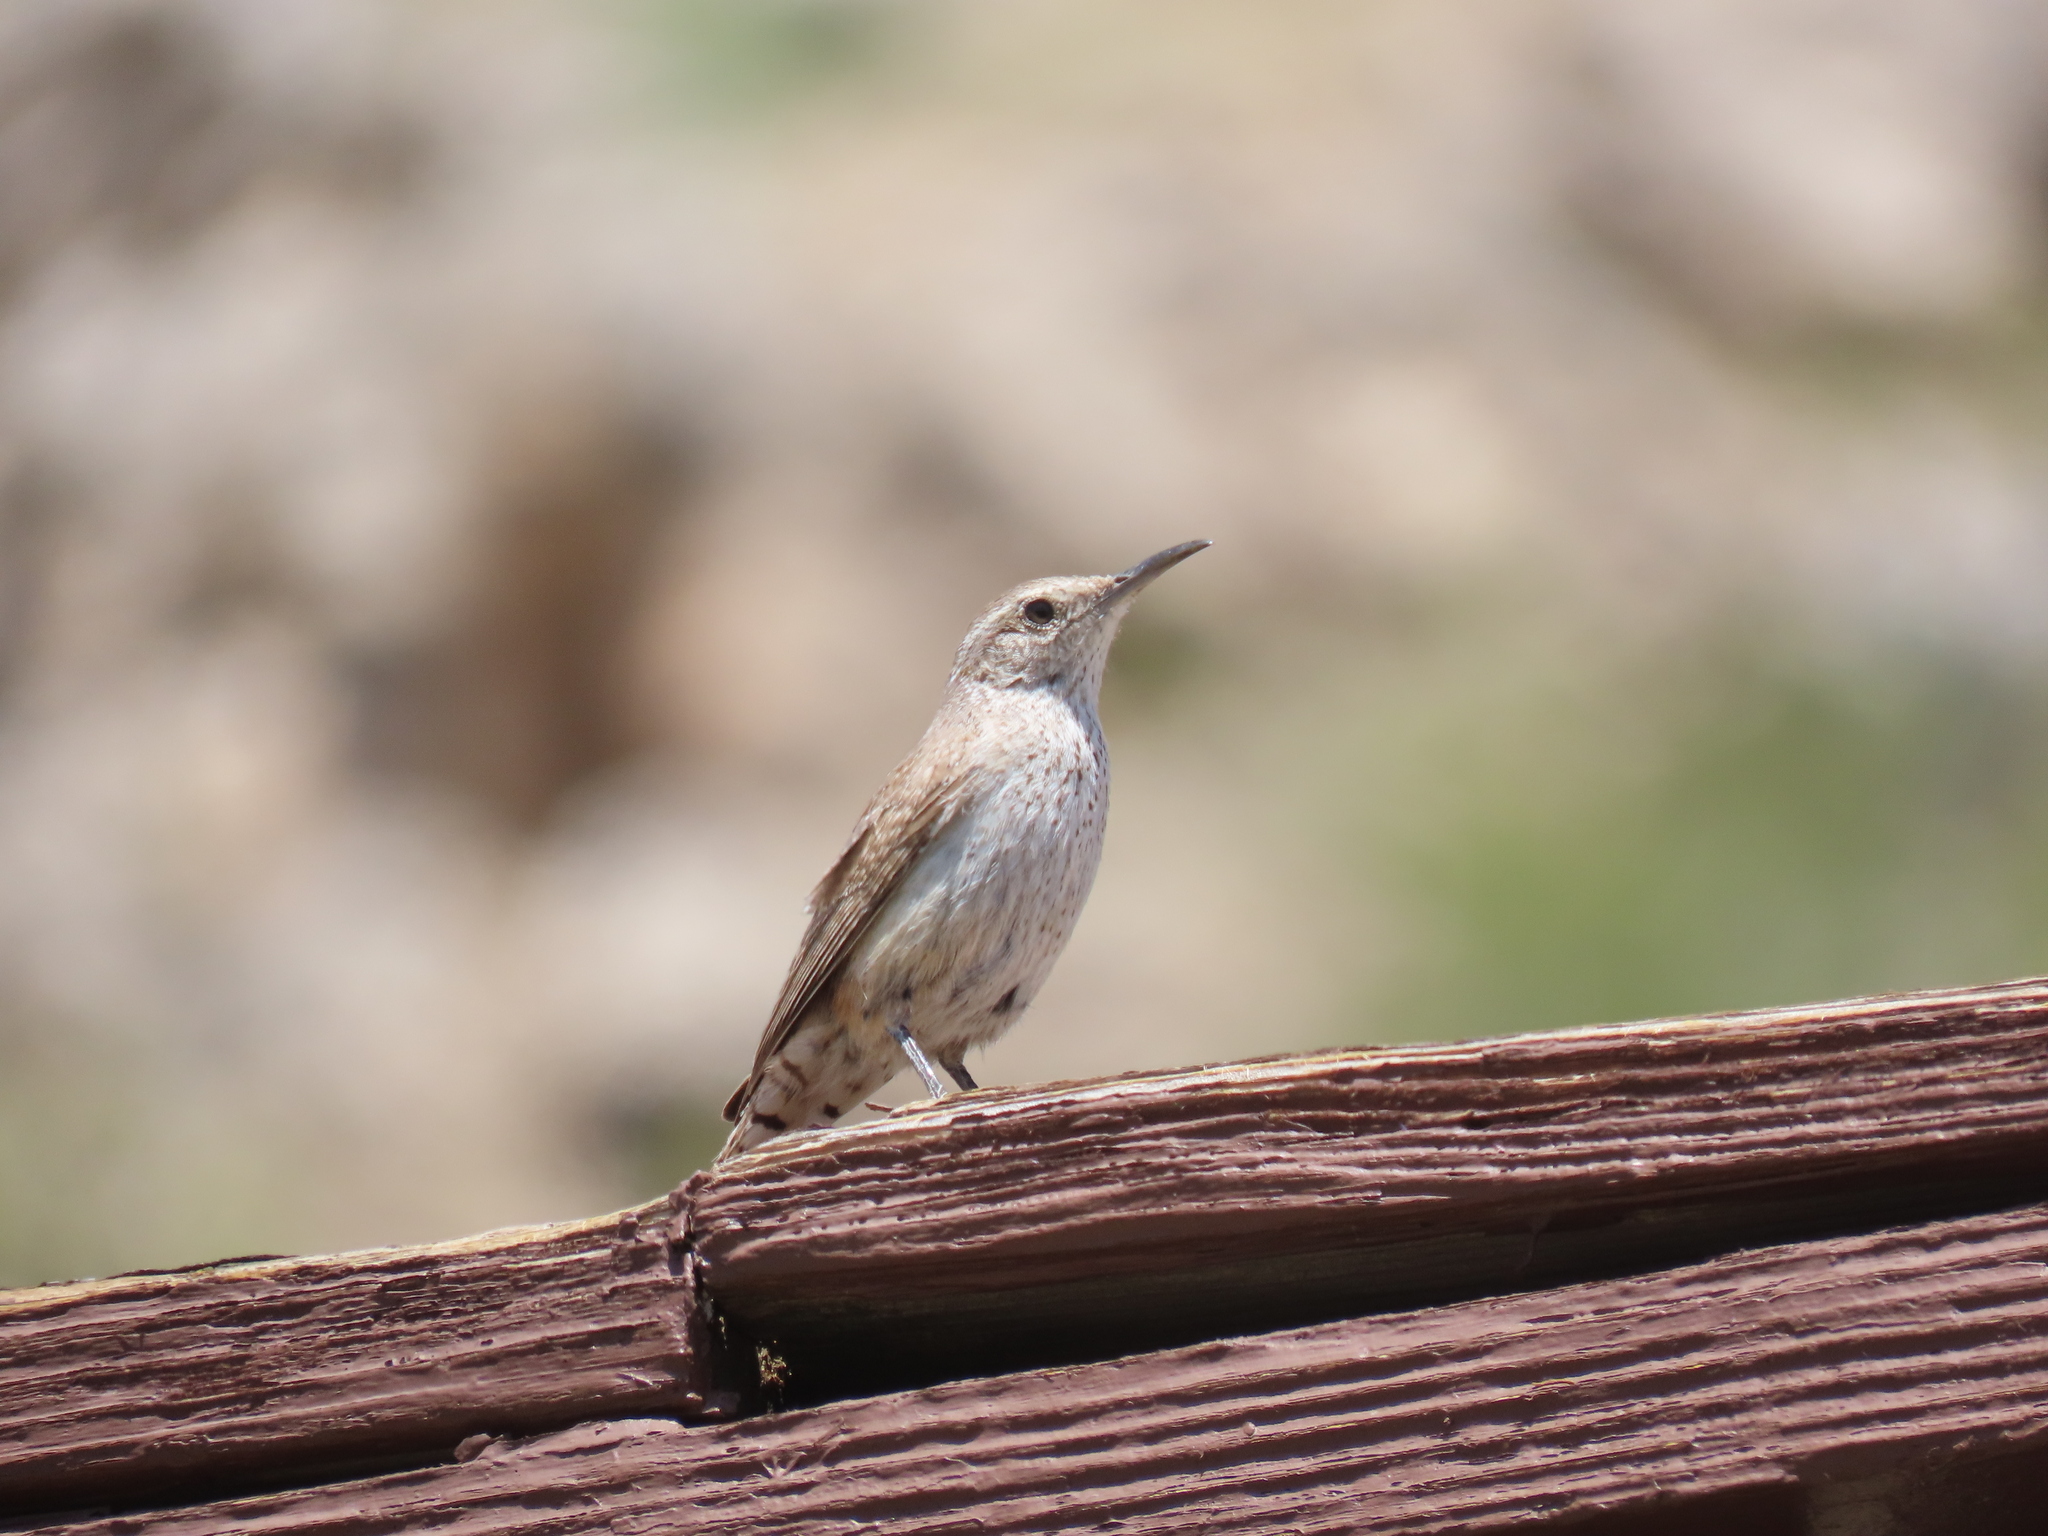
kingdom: Animalia
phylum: Chordata
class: Aves
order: Passeriformes
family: Troglodytidae
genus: Salpinctes
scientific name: Salpinctes obsoletus
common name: Rock wren
